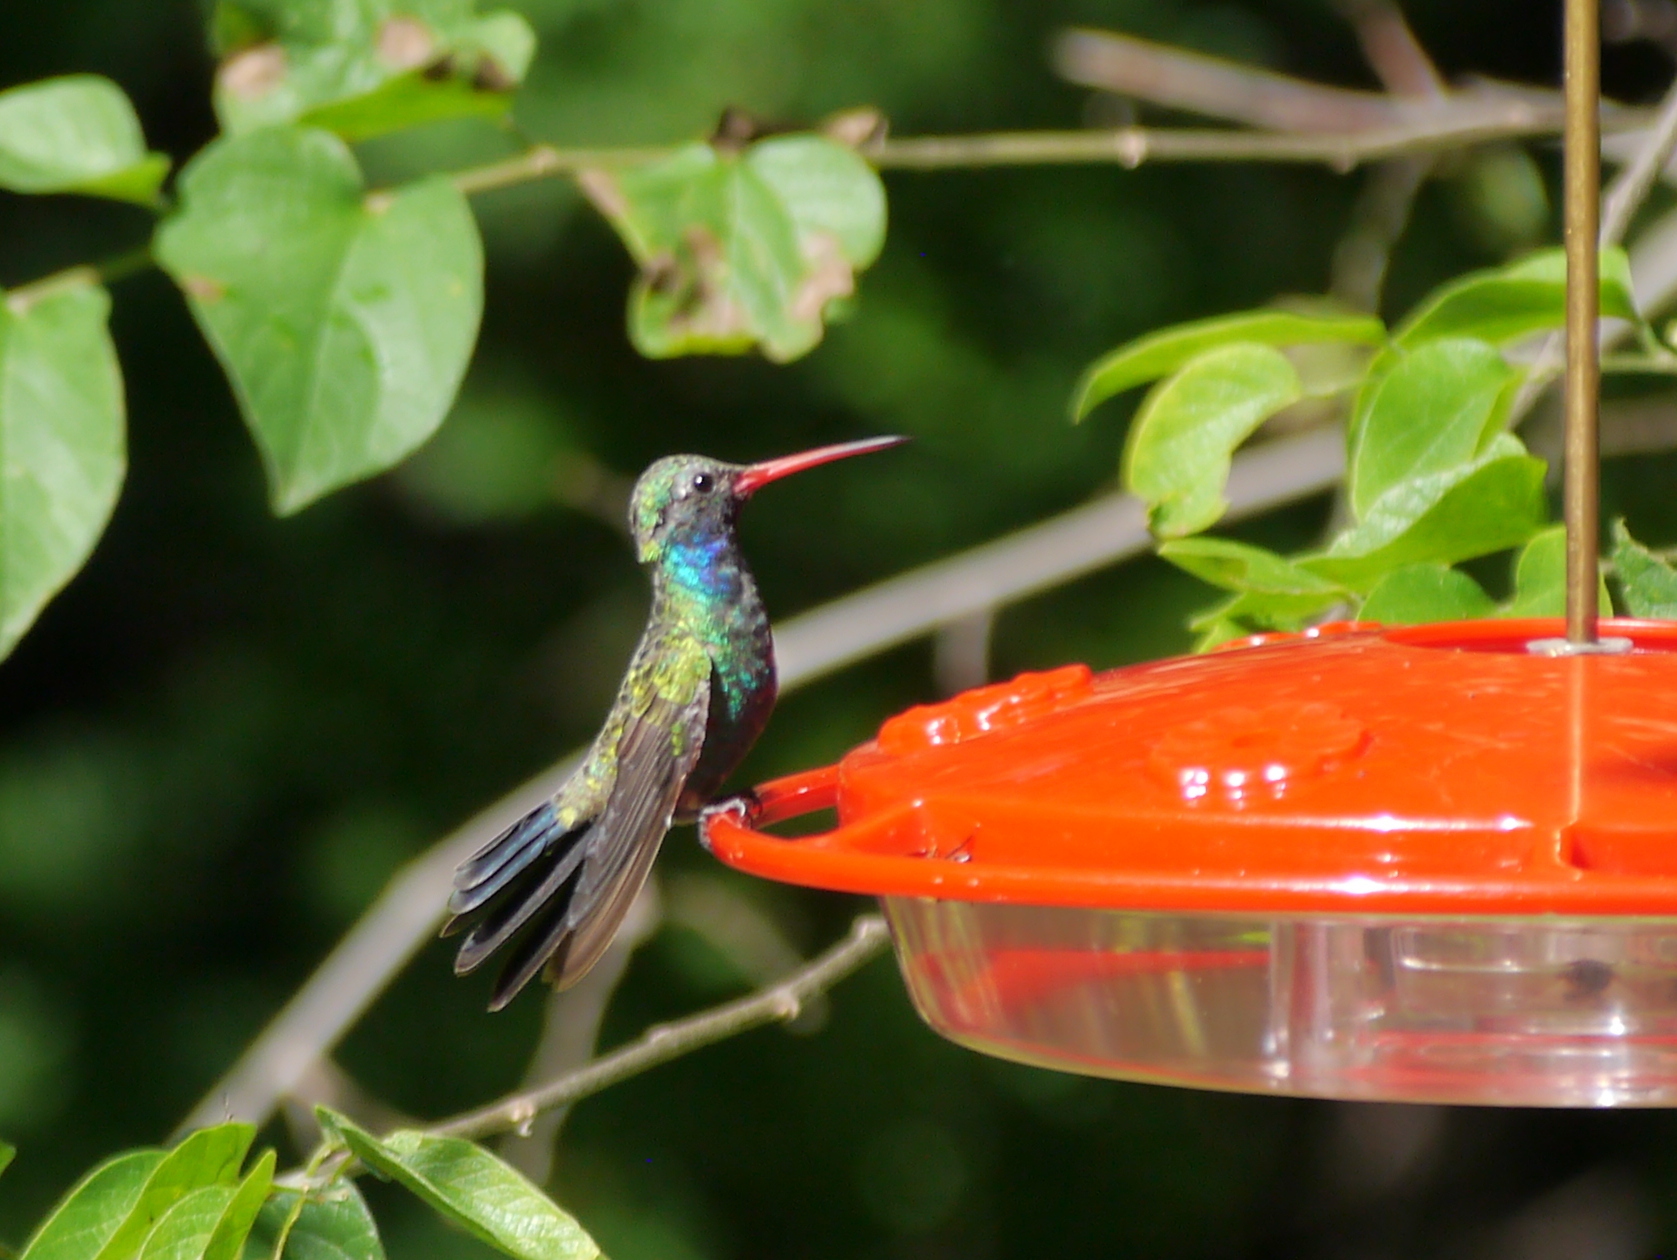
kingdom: Animalia
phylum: Chordata
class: Aves
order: Apodiformes
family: Trochilidae
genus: Cynanthus
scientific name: Cynanthus latirostris
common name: Broad-billed hummingbird
